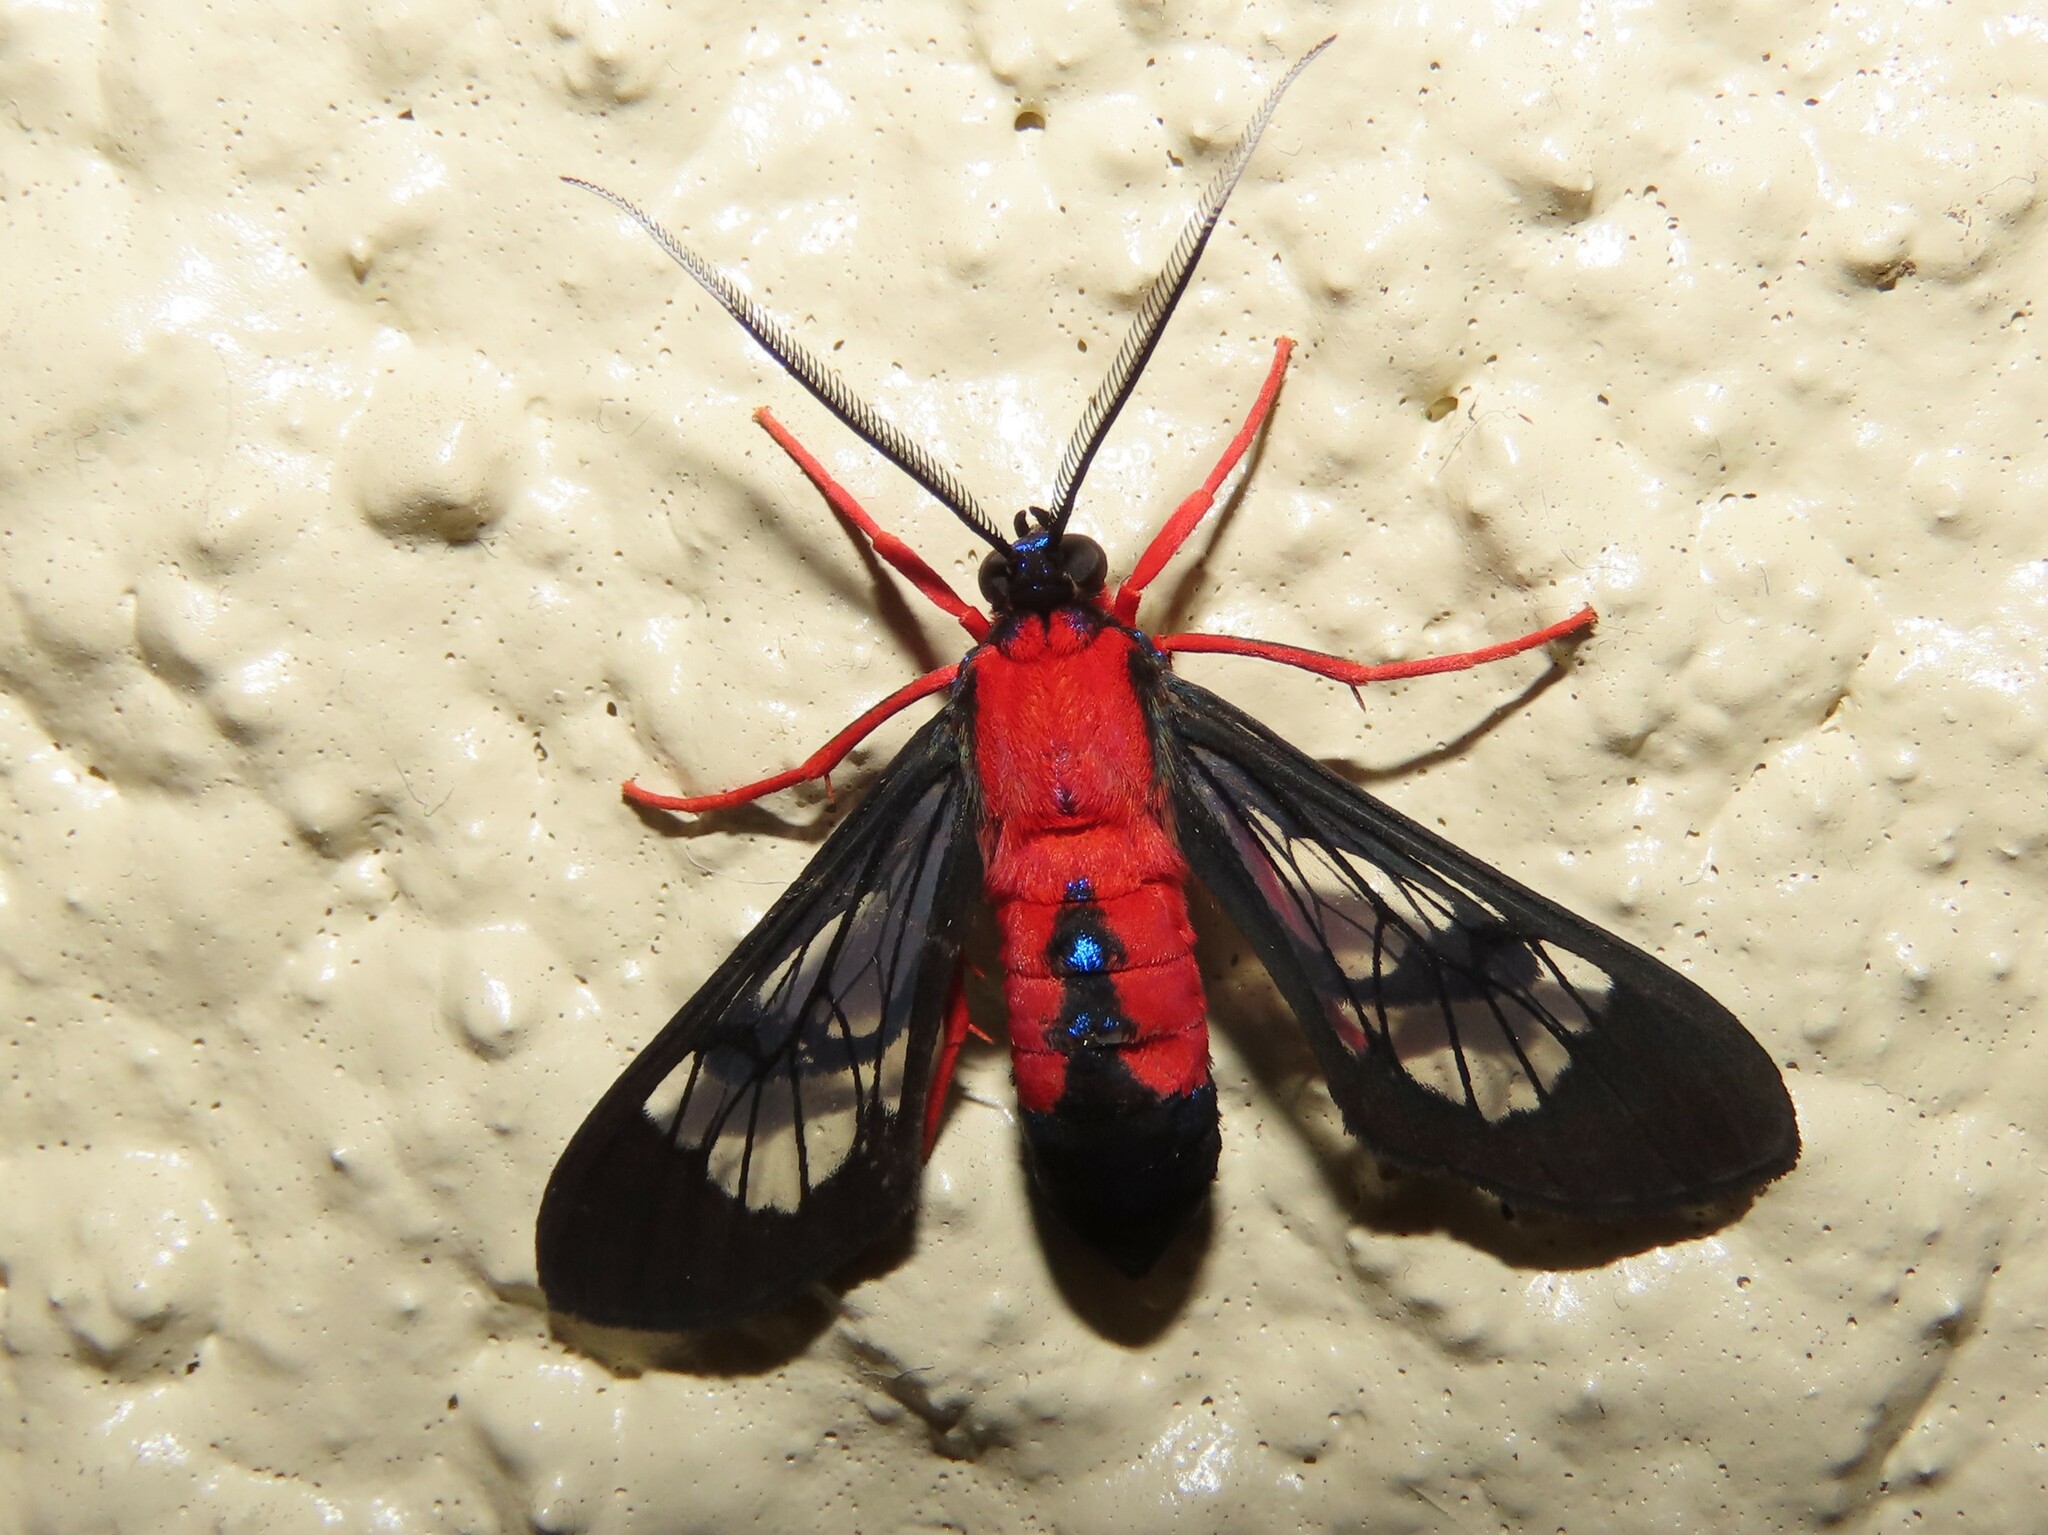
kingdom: Animalia
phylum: Arthropoda
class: Insecta
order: Lepidoptera
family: Erebidae
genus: Cosmosoma
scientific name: Cosmosoma myrodora
